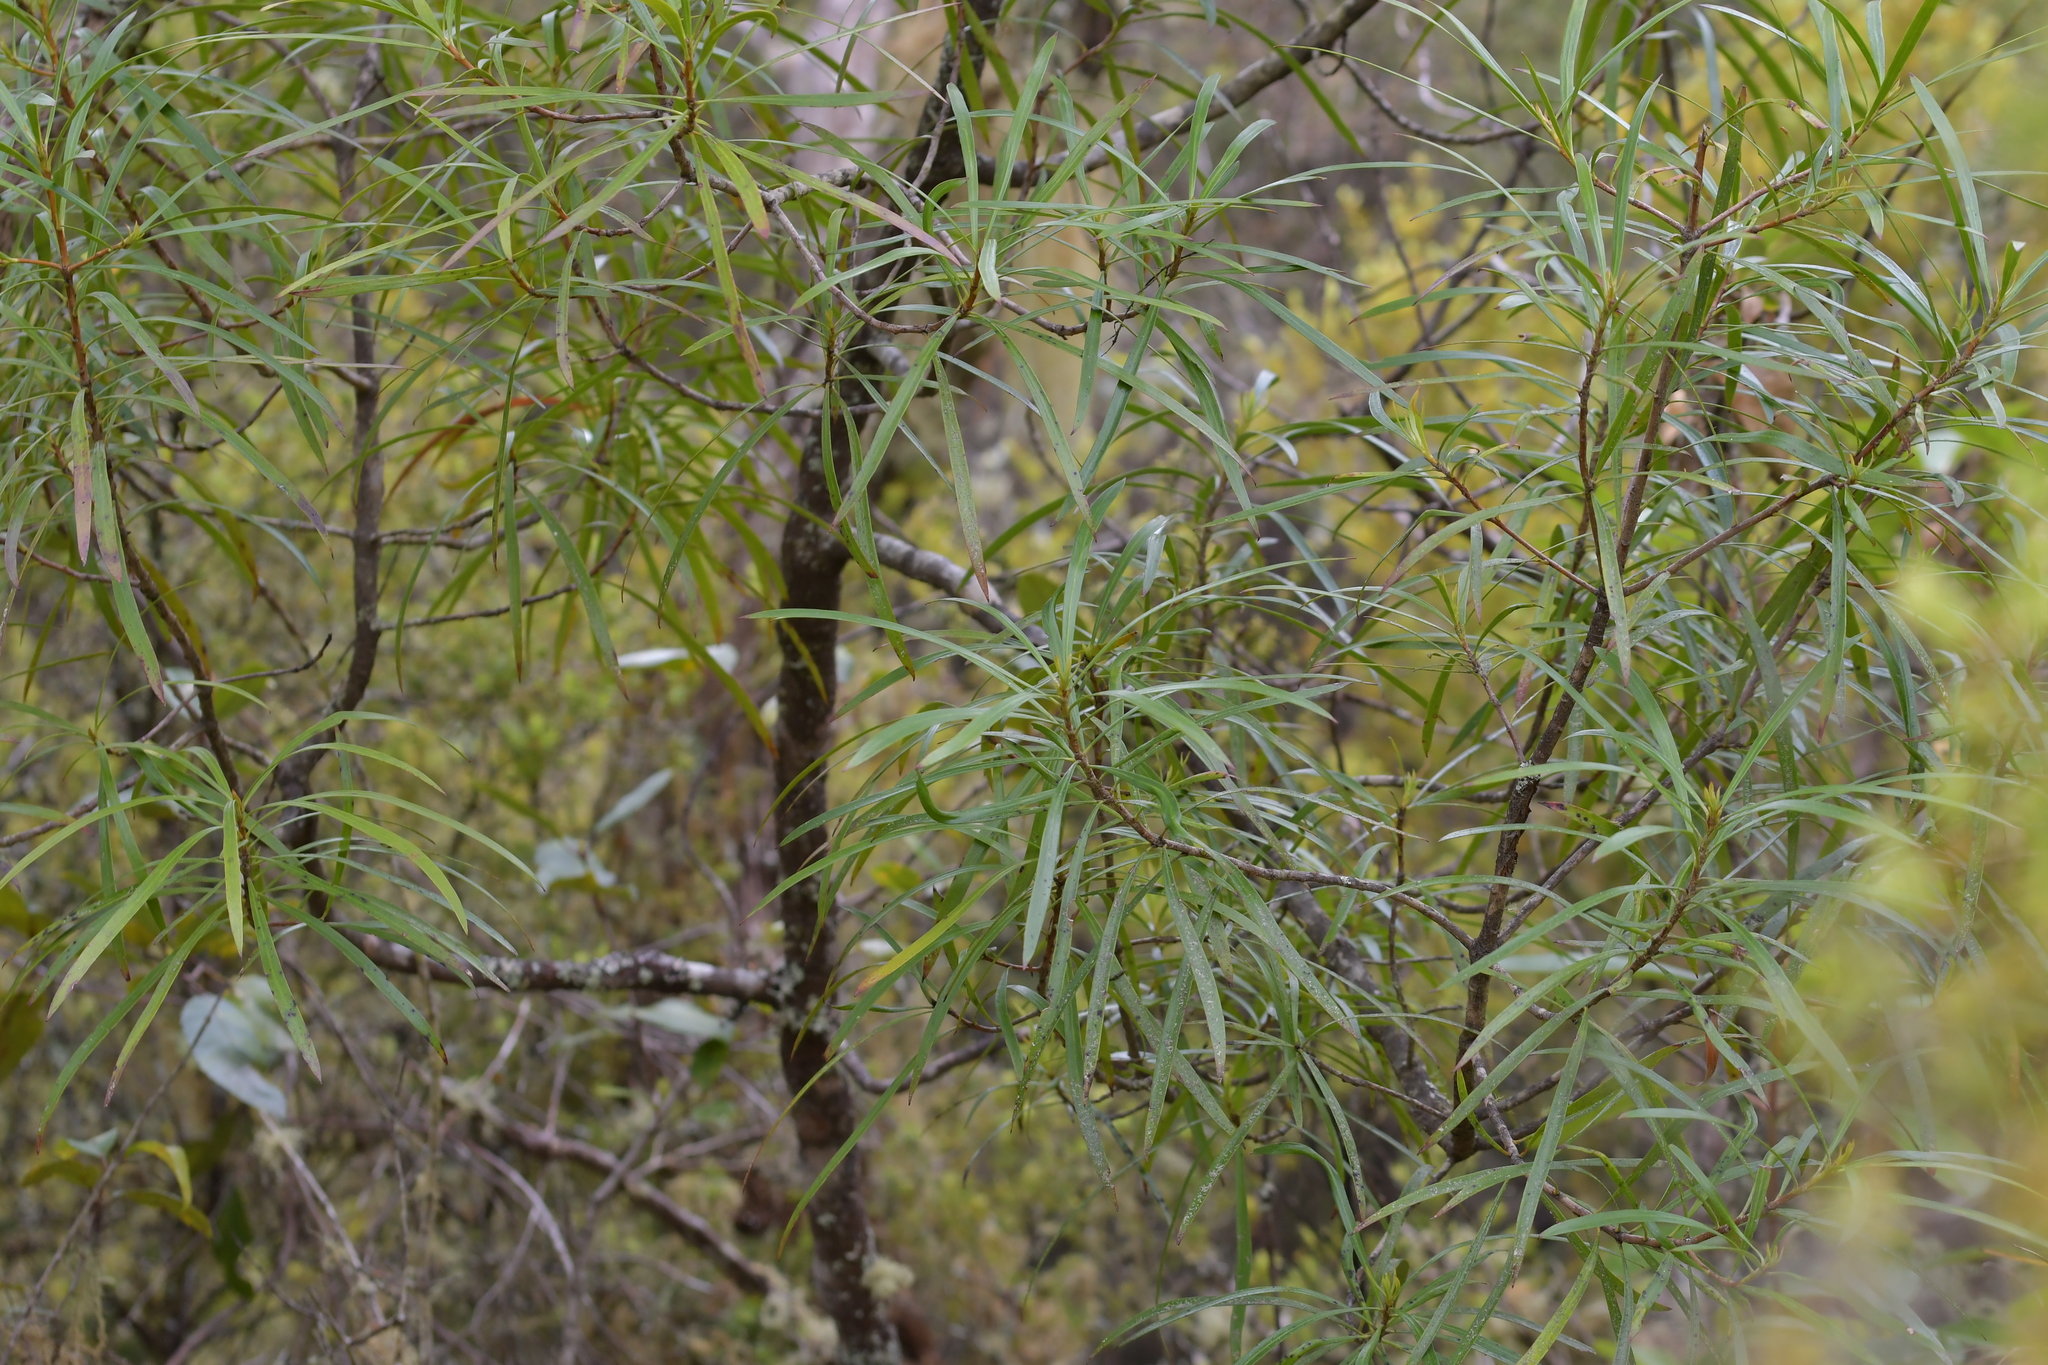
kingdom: Plantae
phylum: Tracheophyta
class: Magnoliopsida
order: Proteales
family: Proteaceae
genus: Toronia
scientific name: Toronia toru
